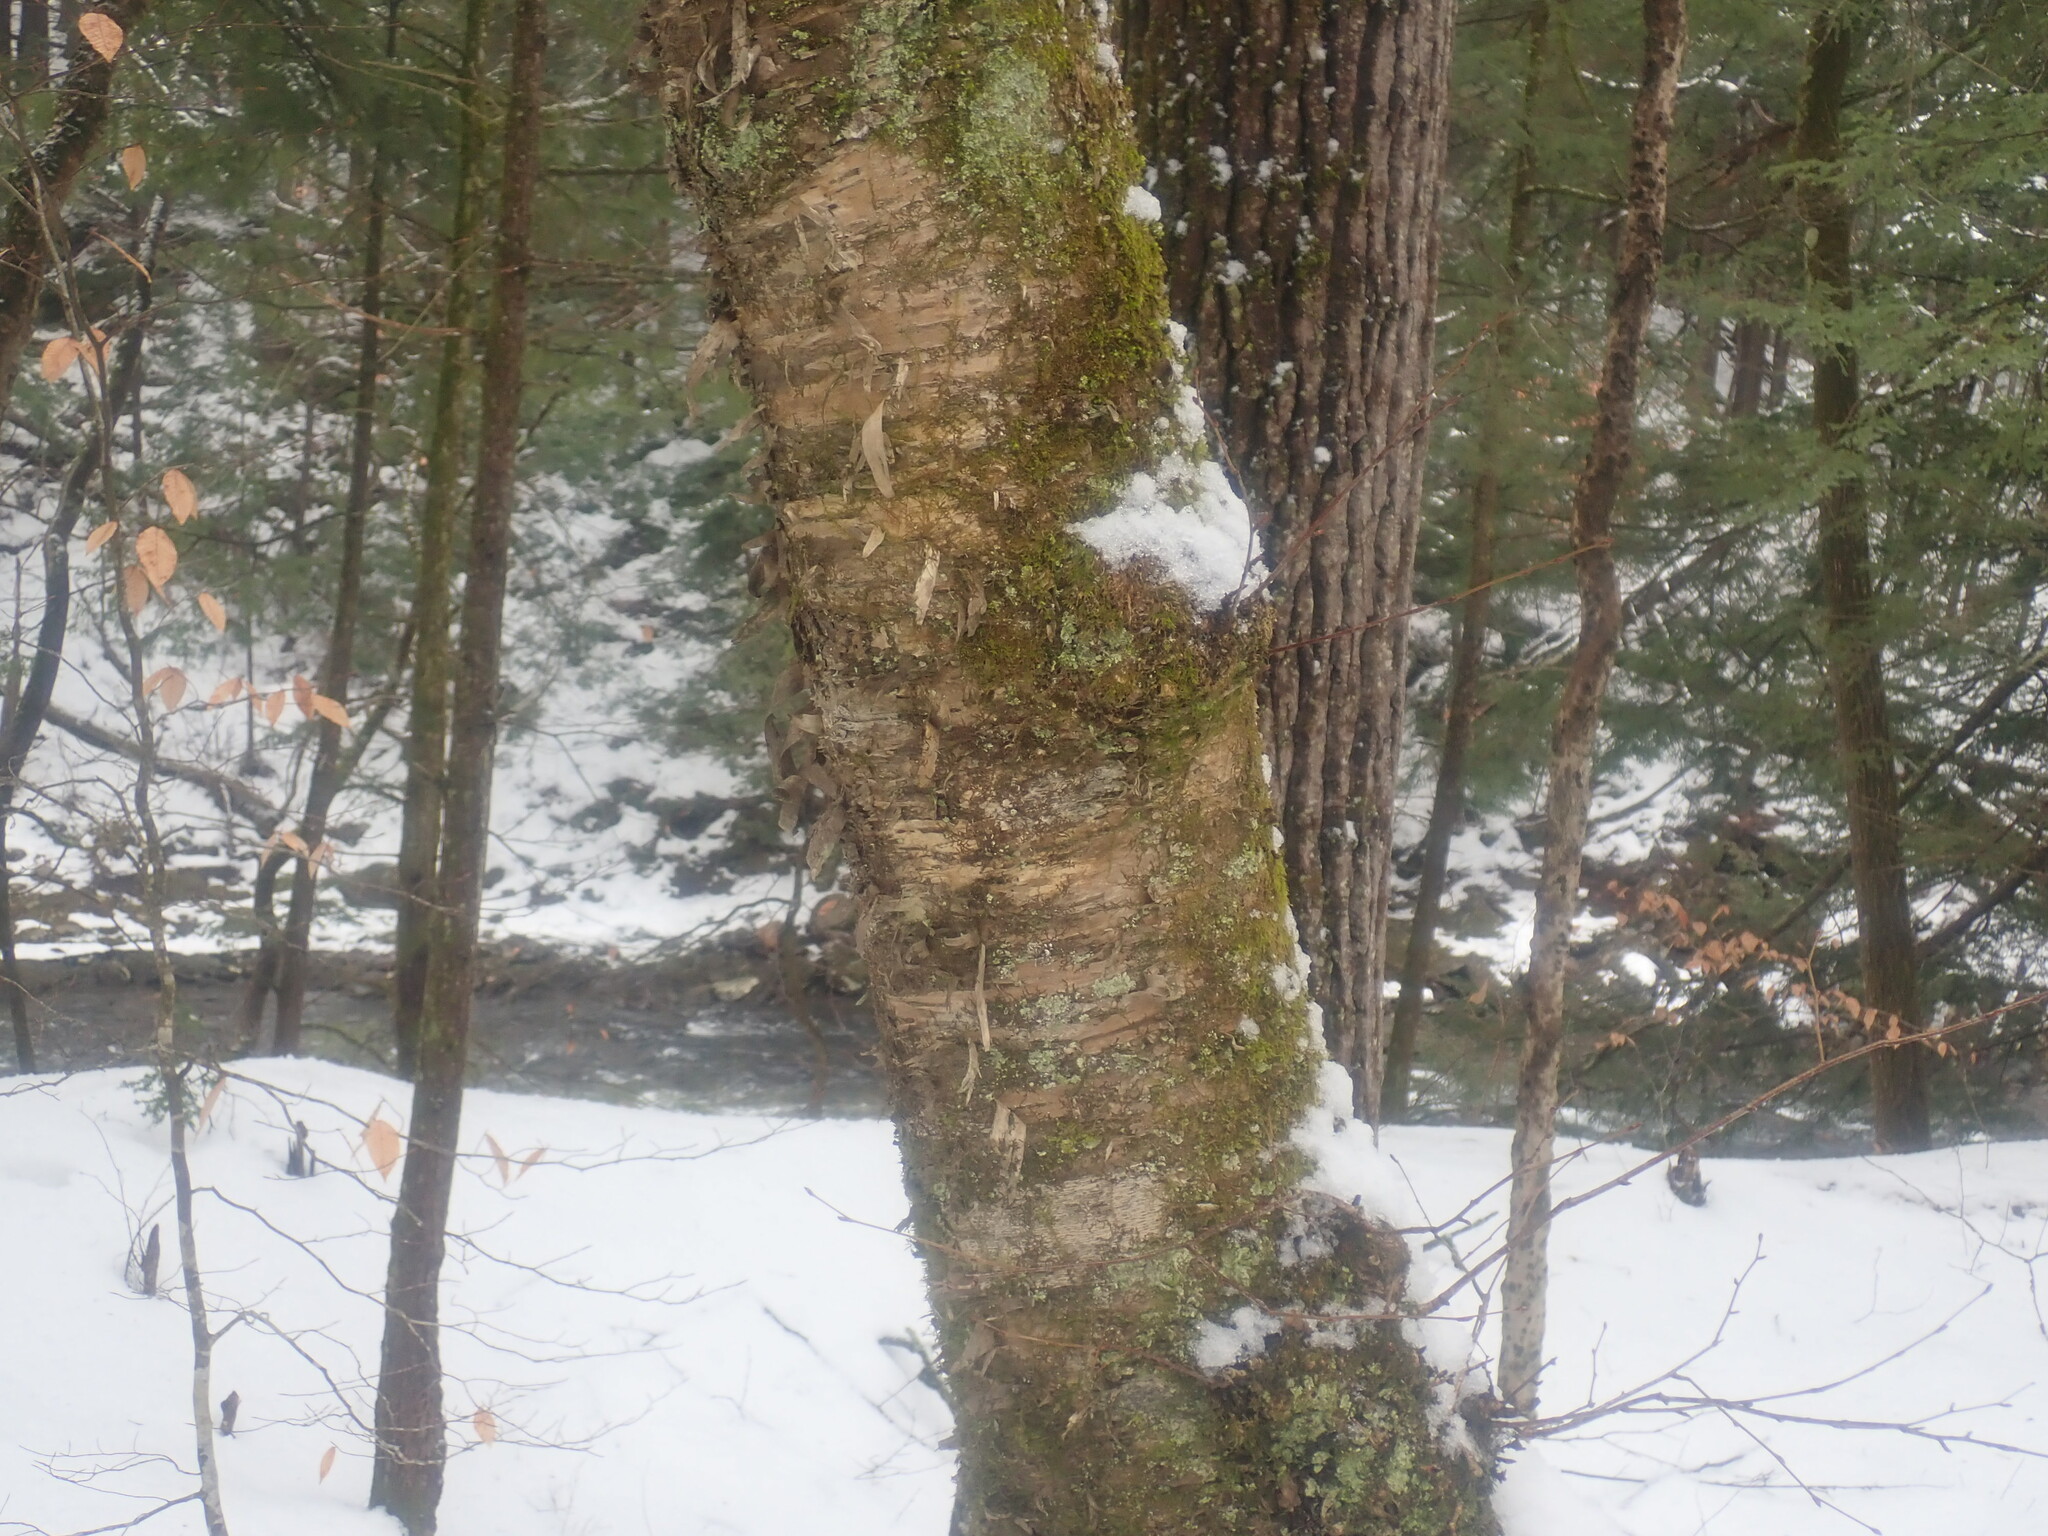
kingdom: Plantae
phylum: Tracheophyta
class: Magnoliopsida
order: Fagales
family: Betulaceae
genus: Betula
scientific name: Betula alleghaniensis
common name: Yellow birch
